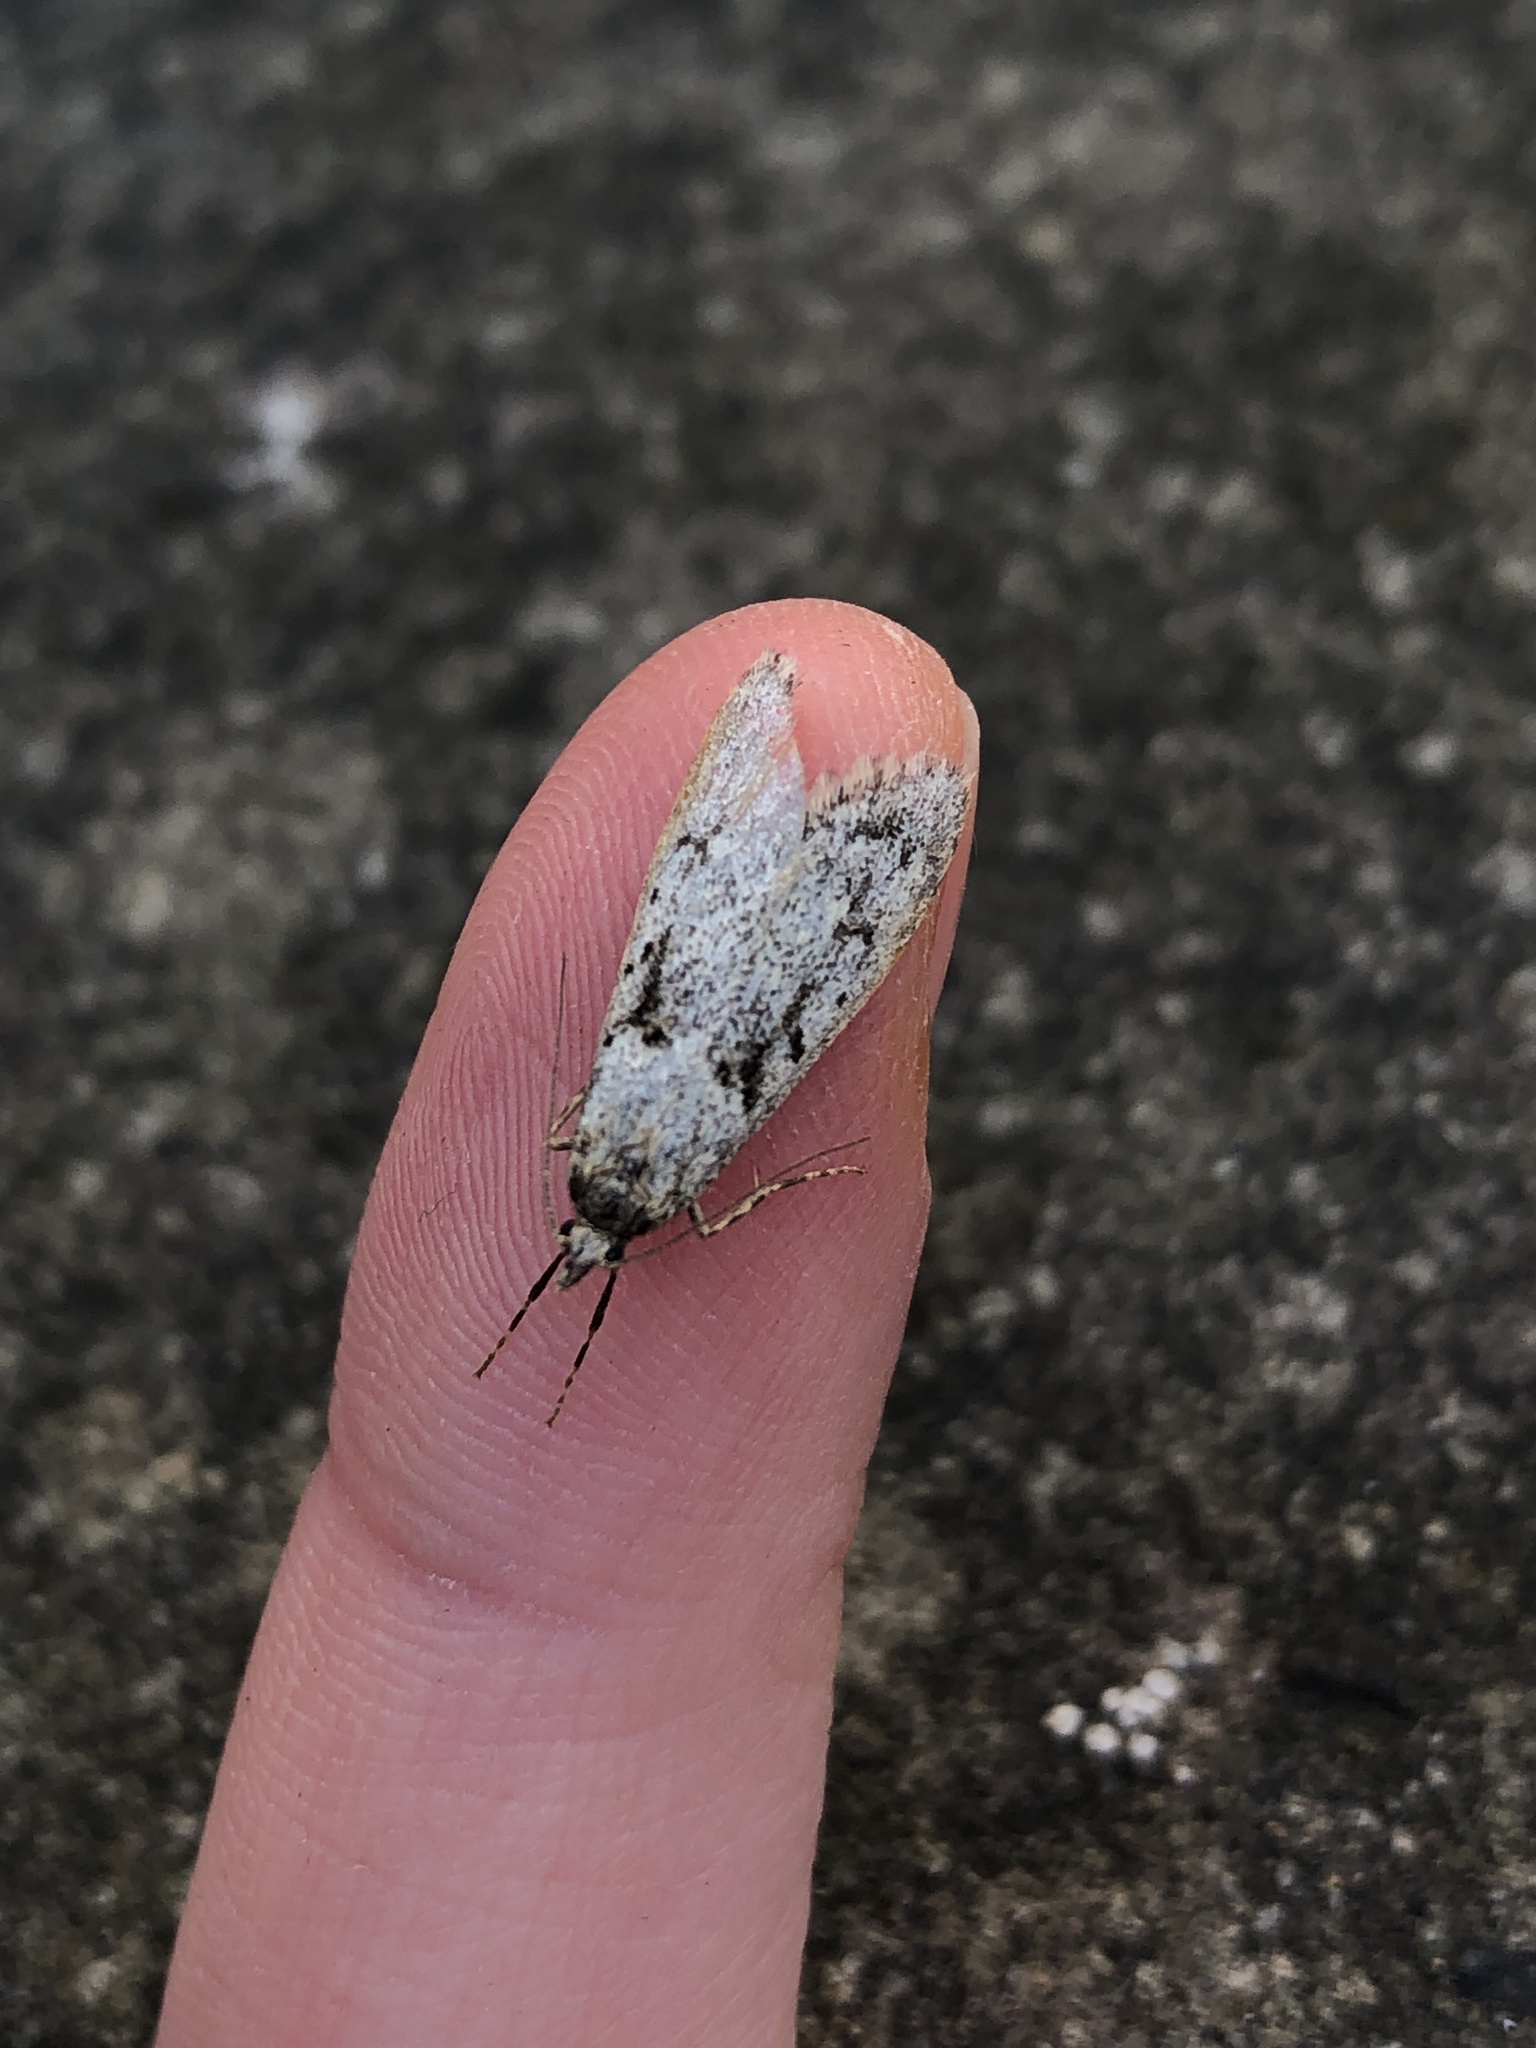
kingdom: Animalia
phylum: Arthropoda
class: Insecta
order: Lepidoptera
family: Lypusidae
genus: Diurnea
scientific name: Diurnea fagella
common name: March tubic
